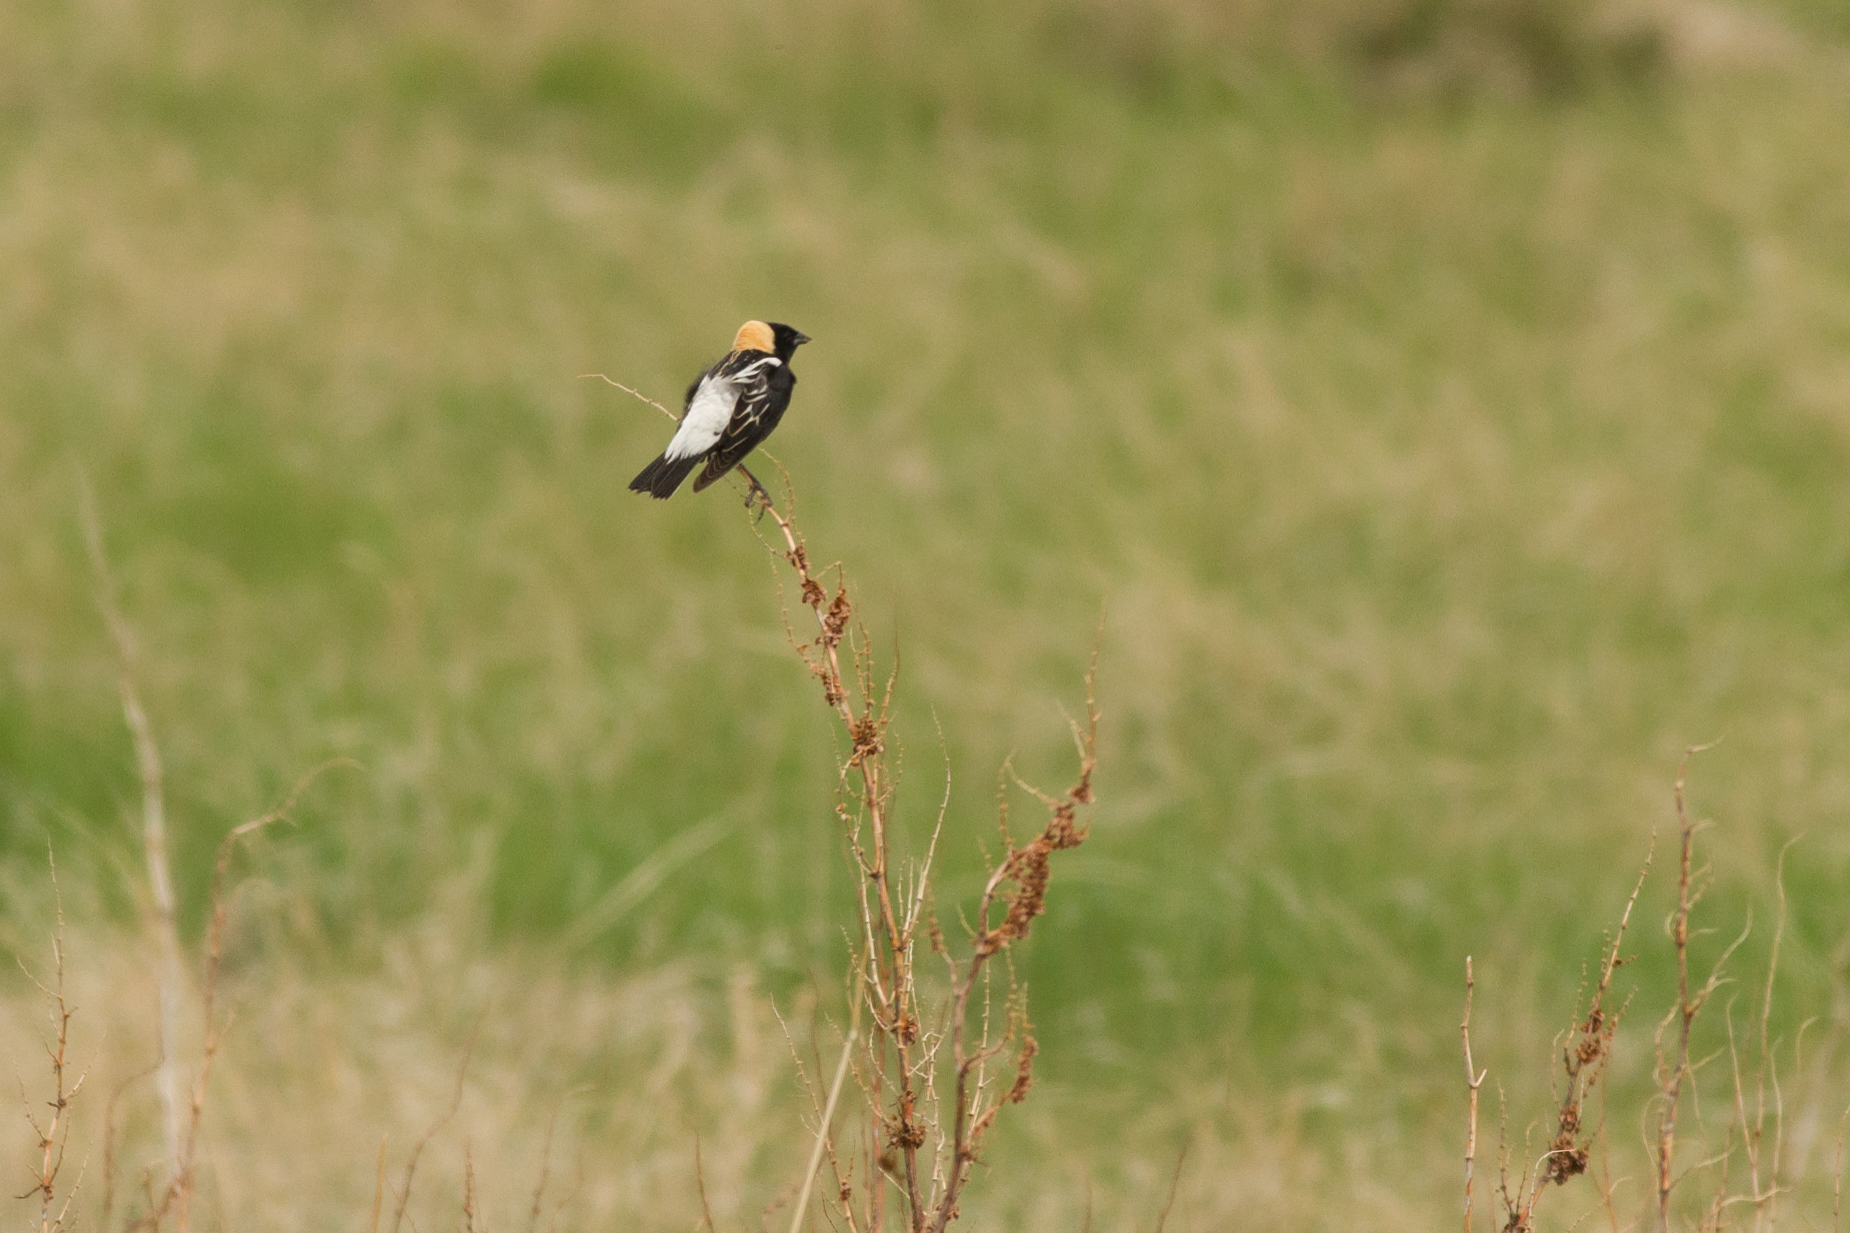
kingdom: Animalia
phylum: Chordata
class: Aves
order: Passeriformes
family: Icteridae
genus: Dolichonyx
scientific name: Dolichonyx oryzivorus
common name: Bobolink
